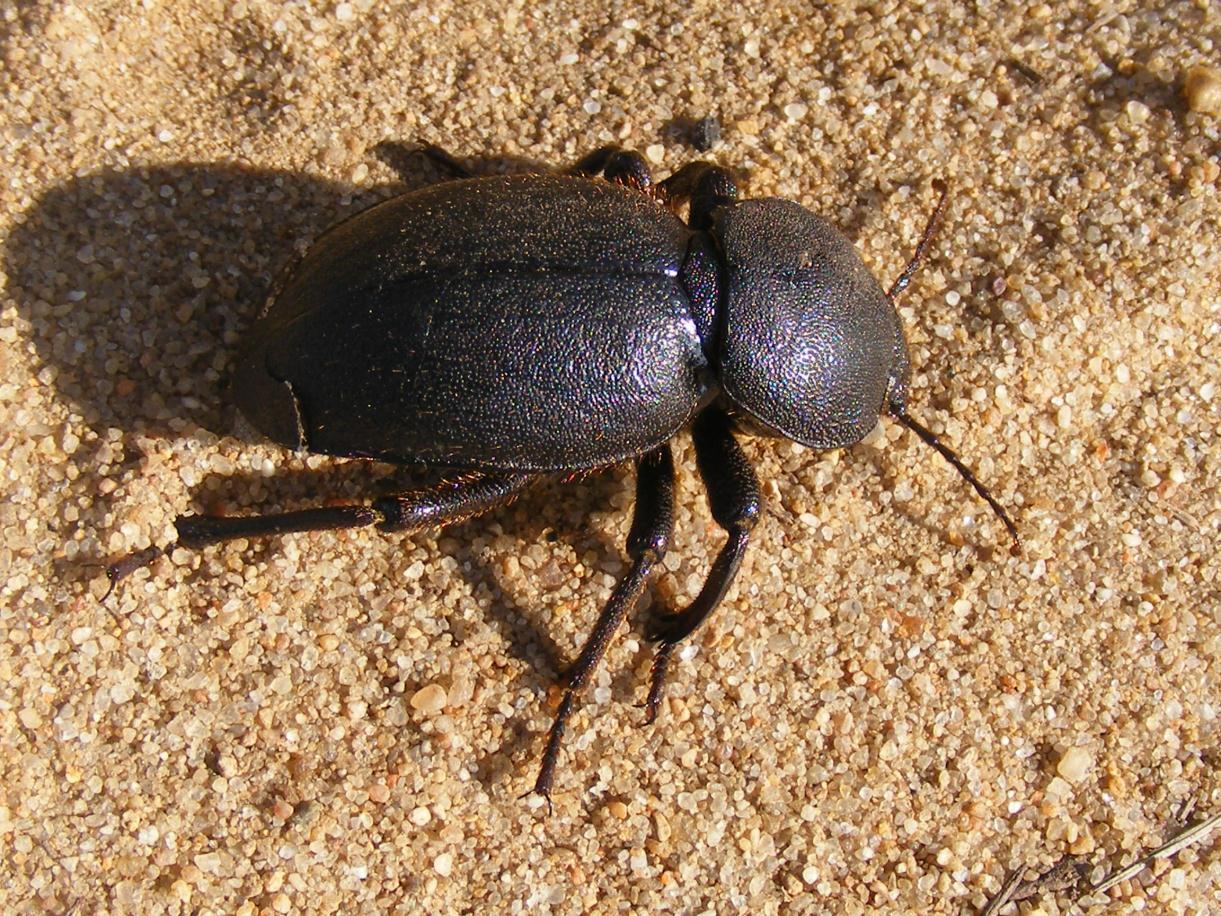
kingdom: Animalia
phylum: Arthropoda
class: Insecta
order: Coleoptera
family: Tenebrionidae
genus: Ocnodes
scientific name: Ocnodes procrustes
